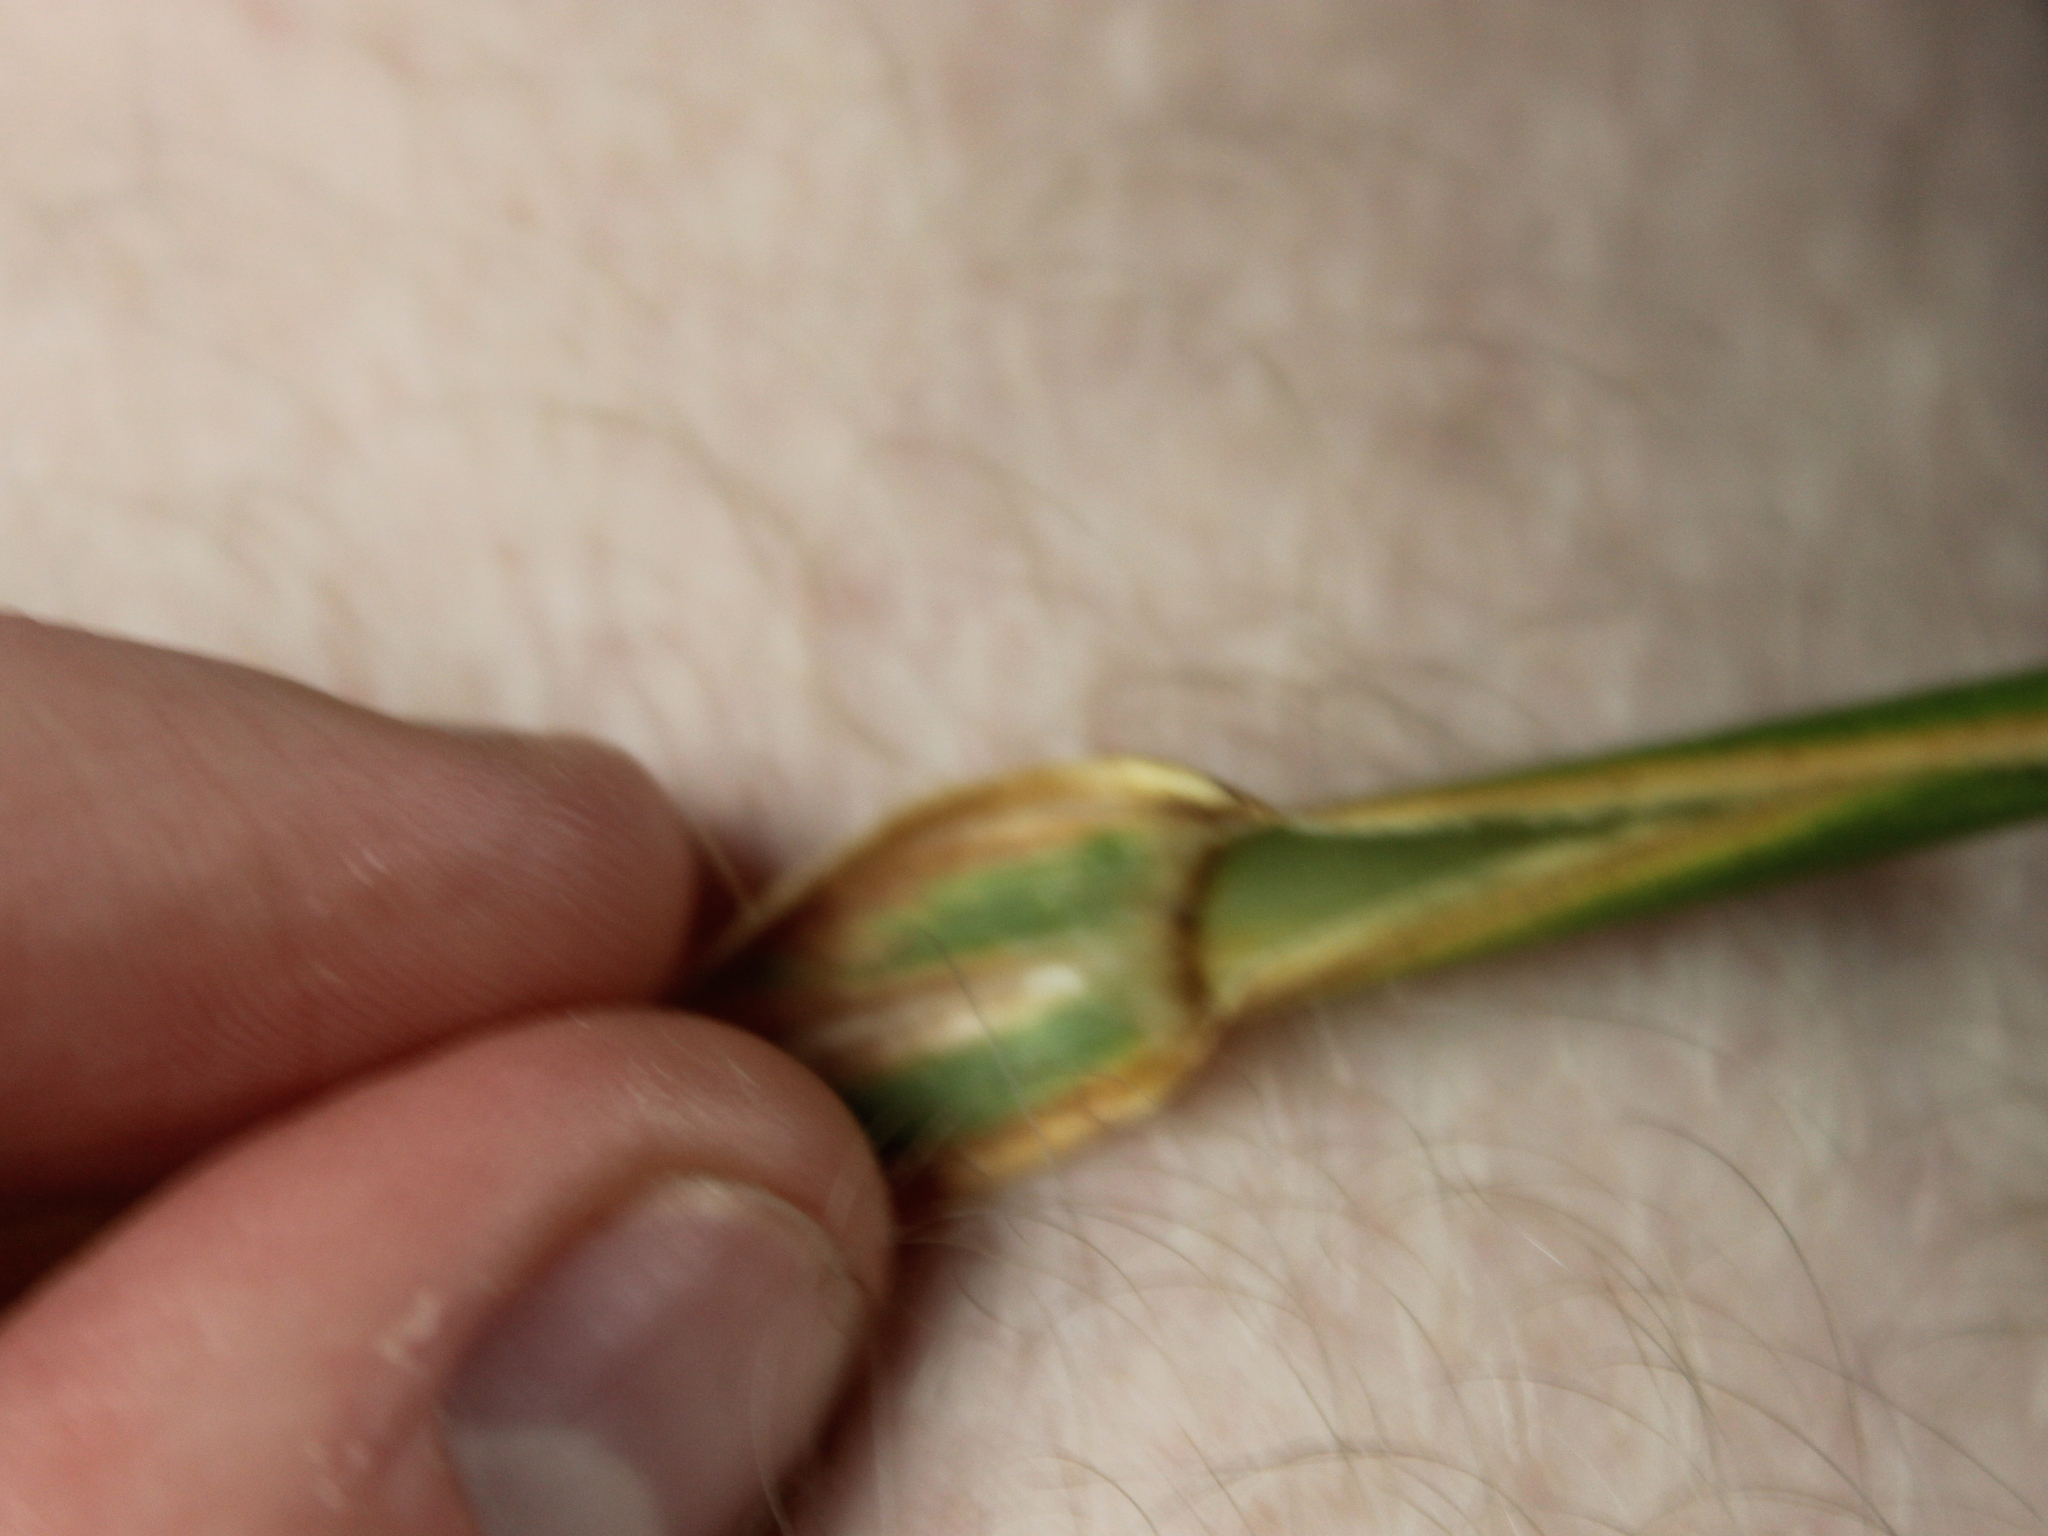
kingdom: Plantae
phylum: Tracheophyta
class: Liliopsida
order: Poales
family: Poaceae
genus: Phalaris
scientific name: Phalaris aquatica
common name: Bulbous canary-grass
